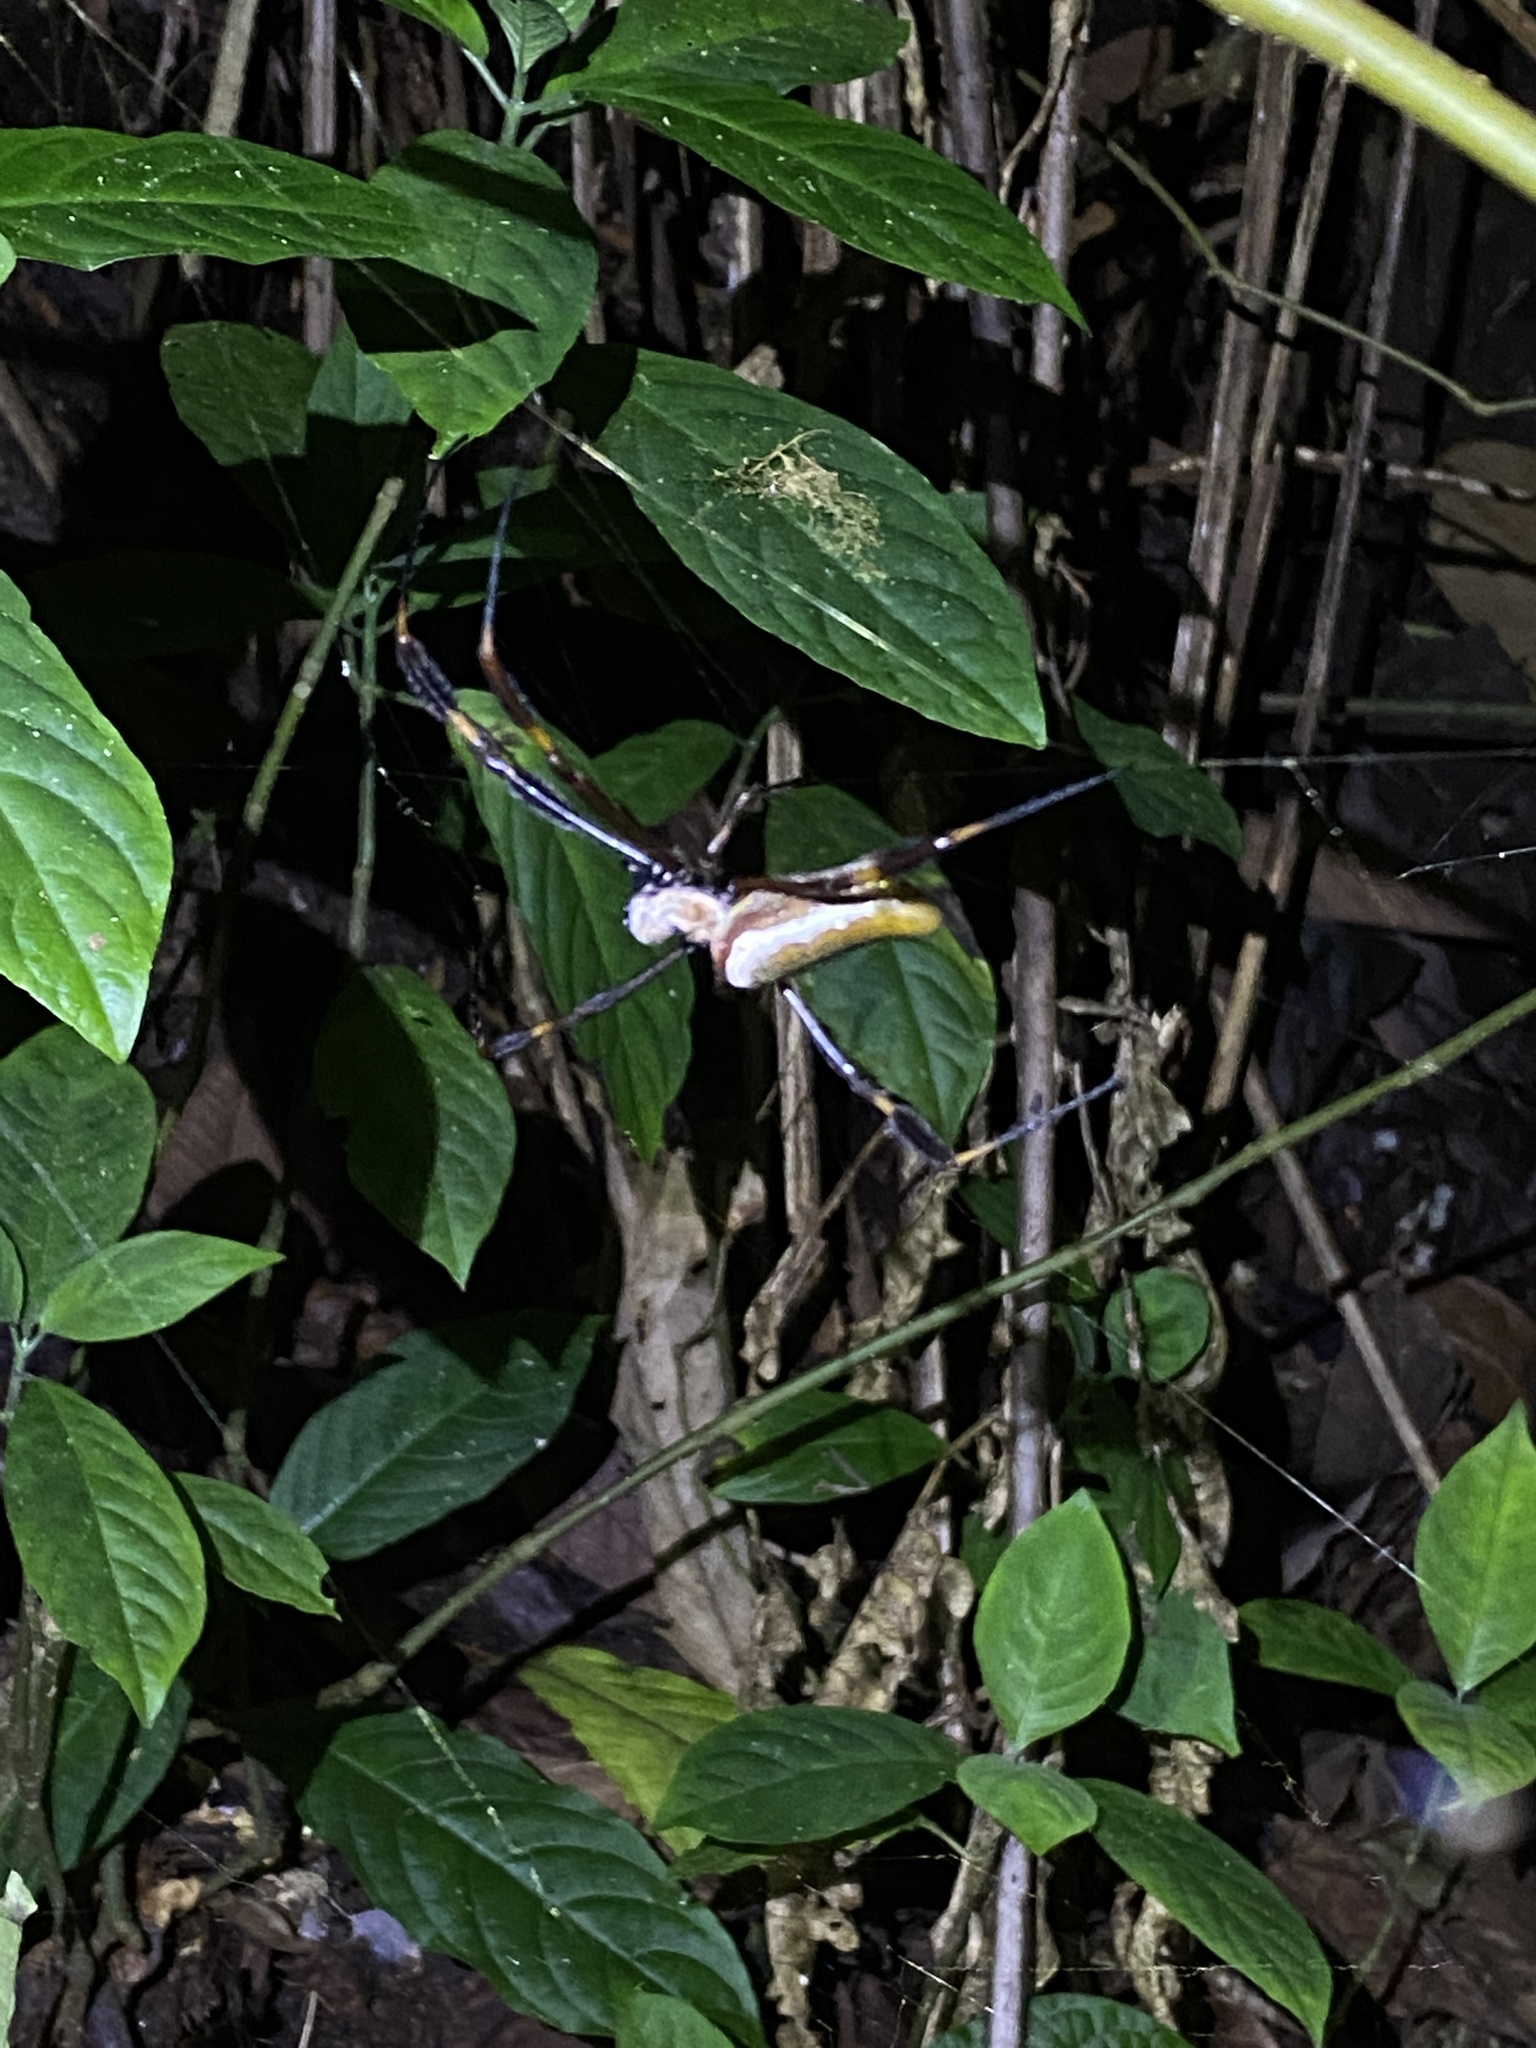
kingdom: Animalia
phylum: Arthropoda
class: Arachnida
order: Araneae
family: Araneidae
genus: Trichonephila
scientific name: Trichonephila clavipes
